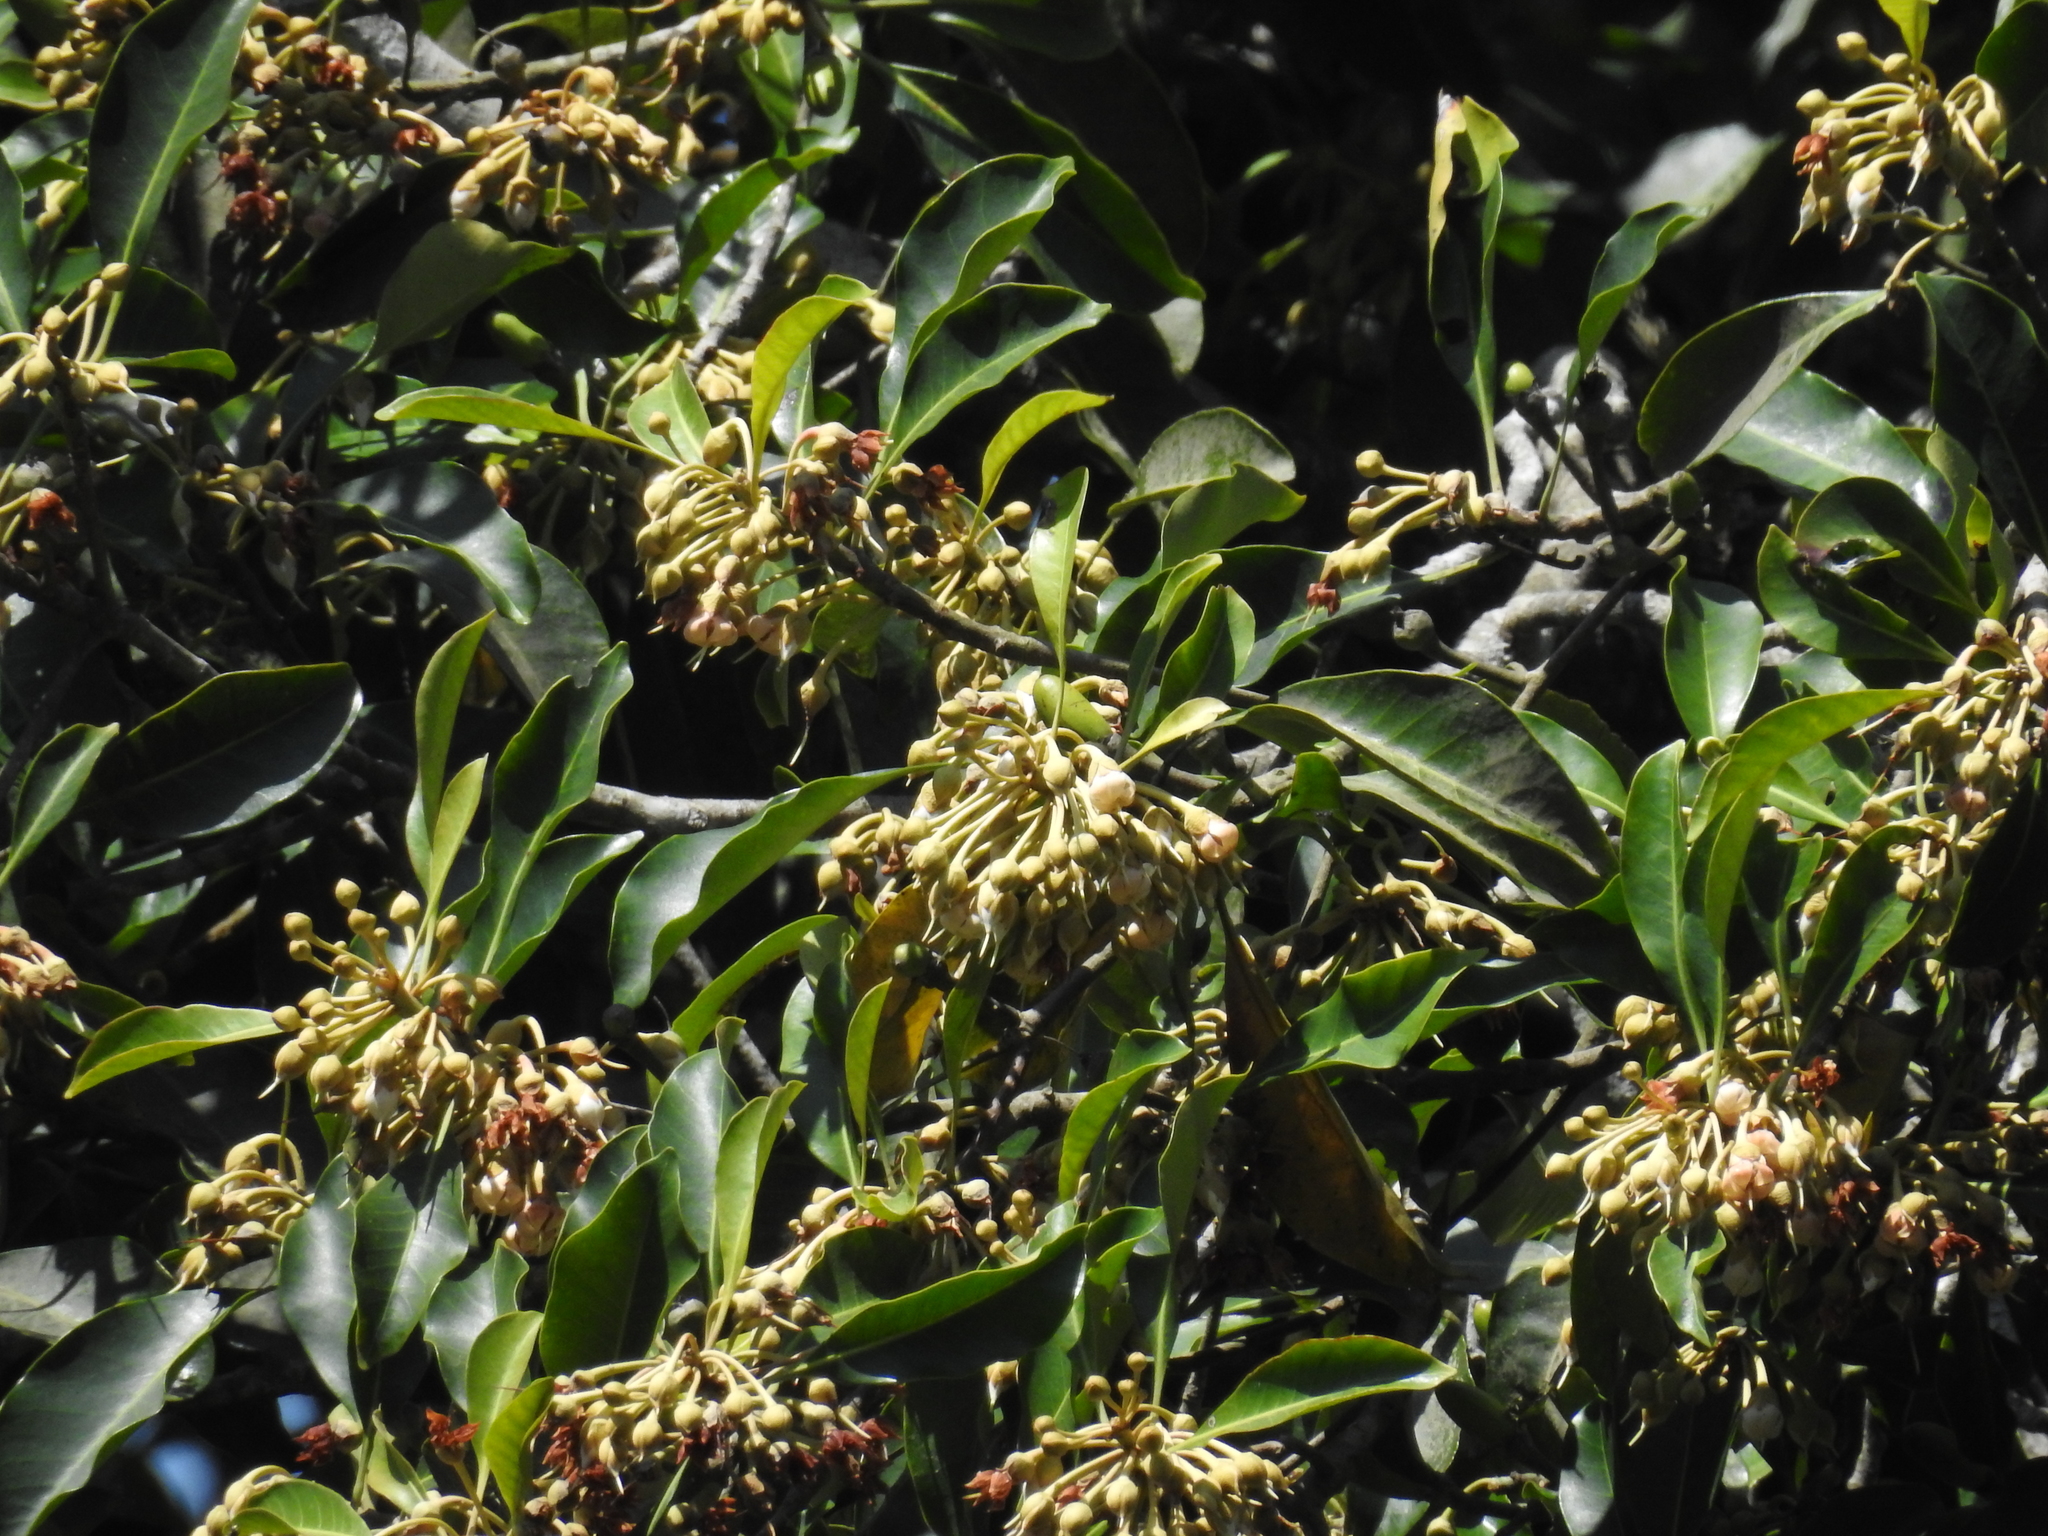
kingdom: Plantae
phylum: Tracheophyta
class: Magnoliopsida
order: Ericales
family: Sapotaceae
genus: Palaquium
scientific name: Palaquium ellipticum
